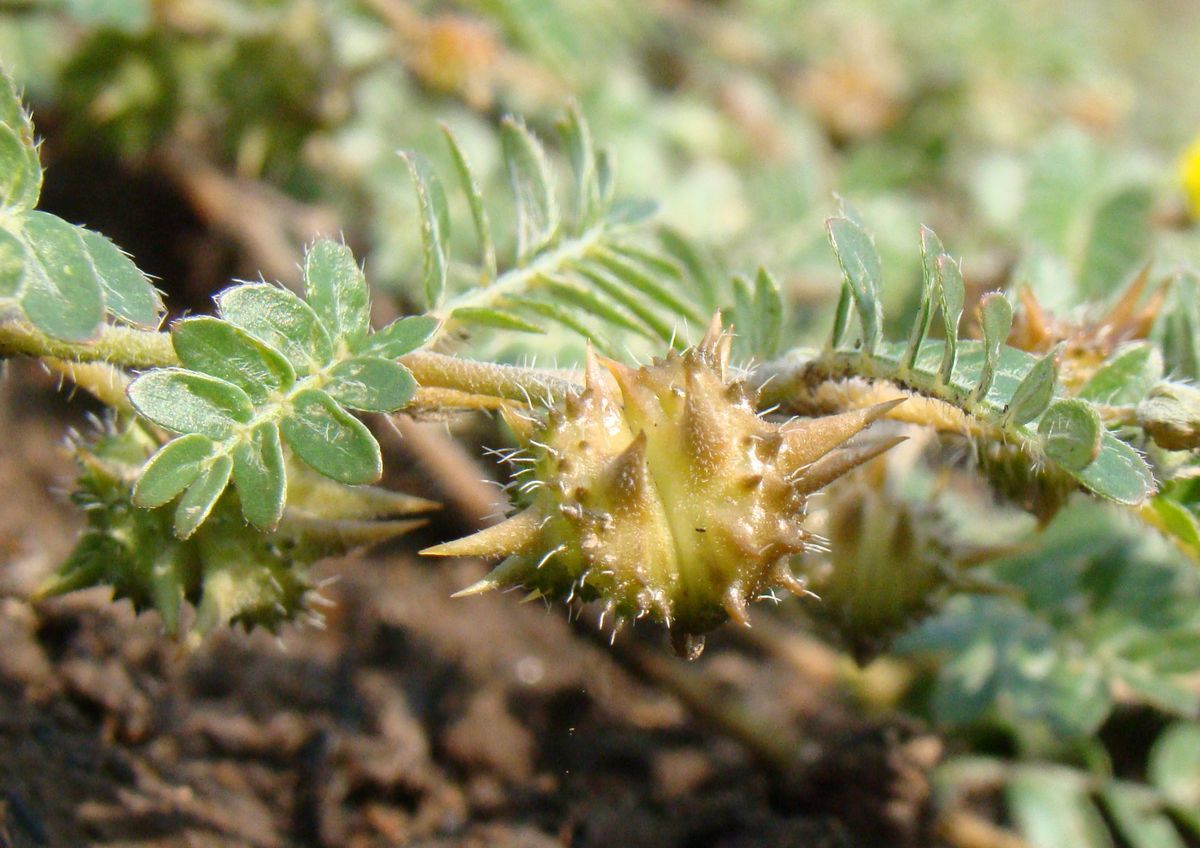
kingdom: Plantae
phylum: Tracheophyta
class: Magnoliopsida
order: Zygophyllales
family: Zygophyllaceae
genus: Tribulus
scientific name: Tribulus terrestris
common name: Puncturevine
